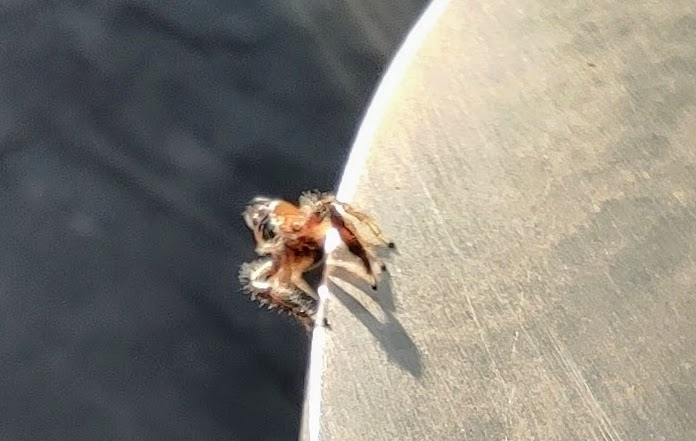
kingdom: Animalia
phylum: Arthropoda
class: Arachnida
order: Araneae
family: Salticidae
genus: Thyene
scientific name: Thyene imperialis
